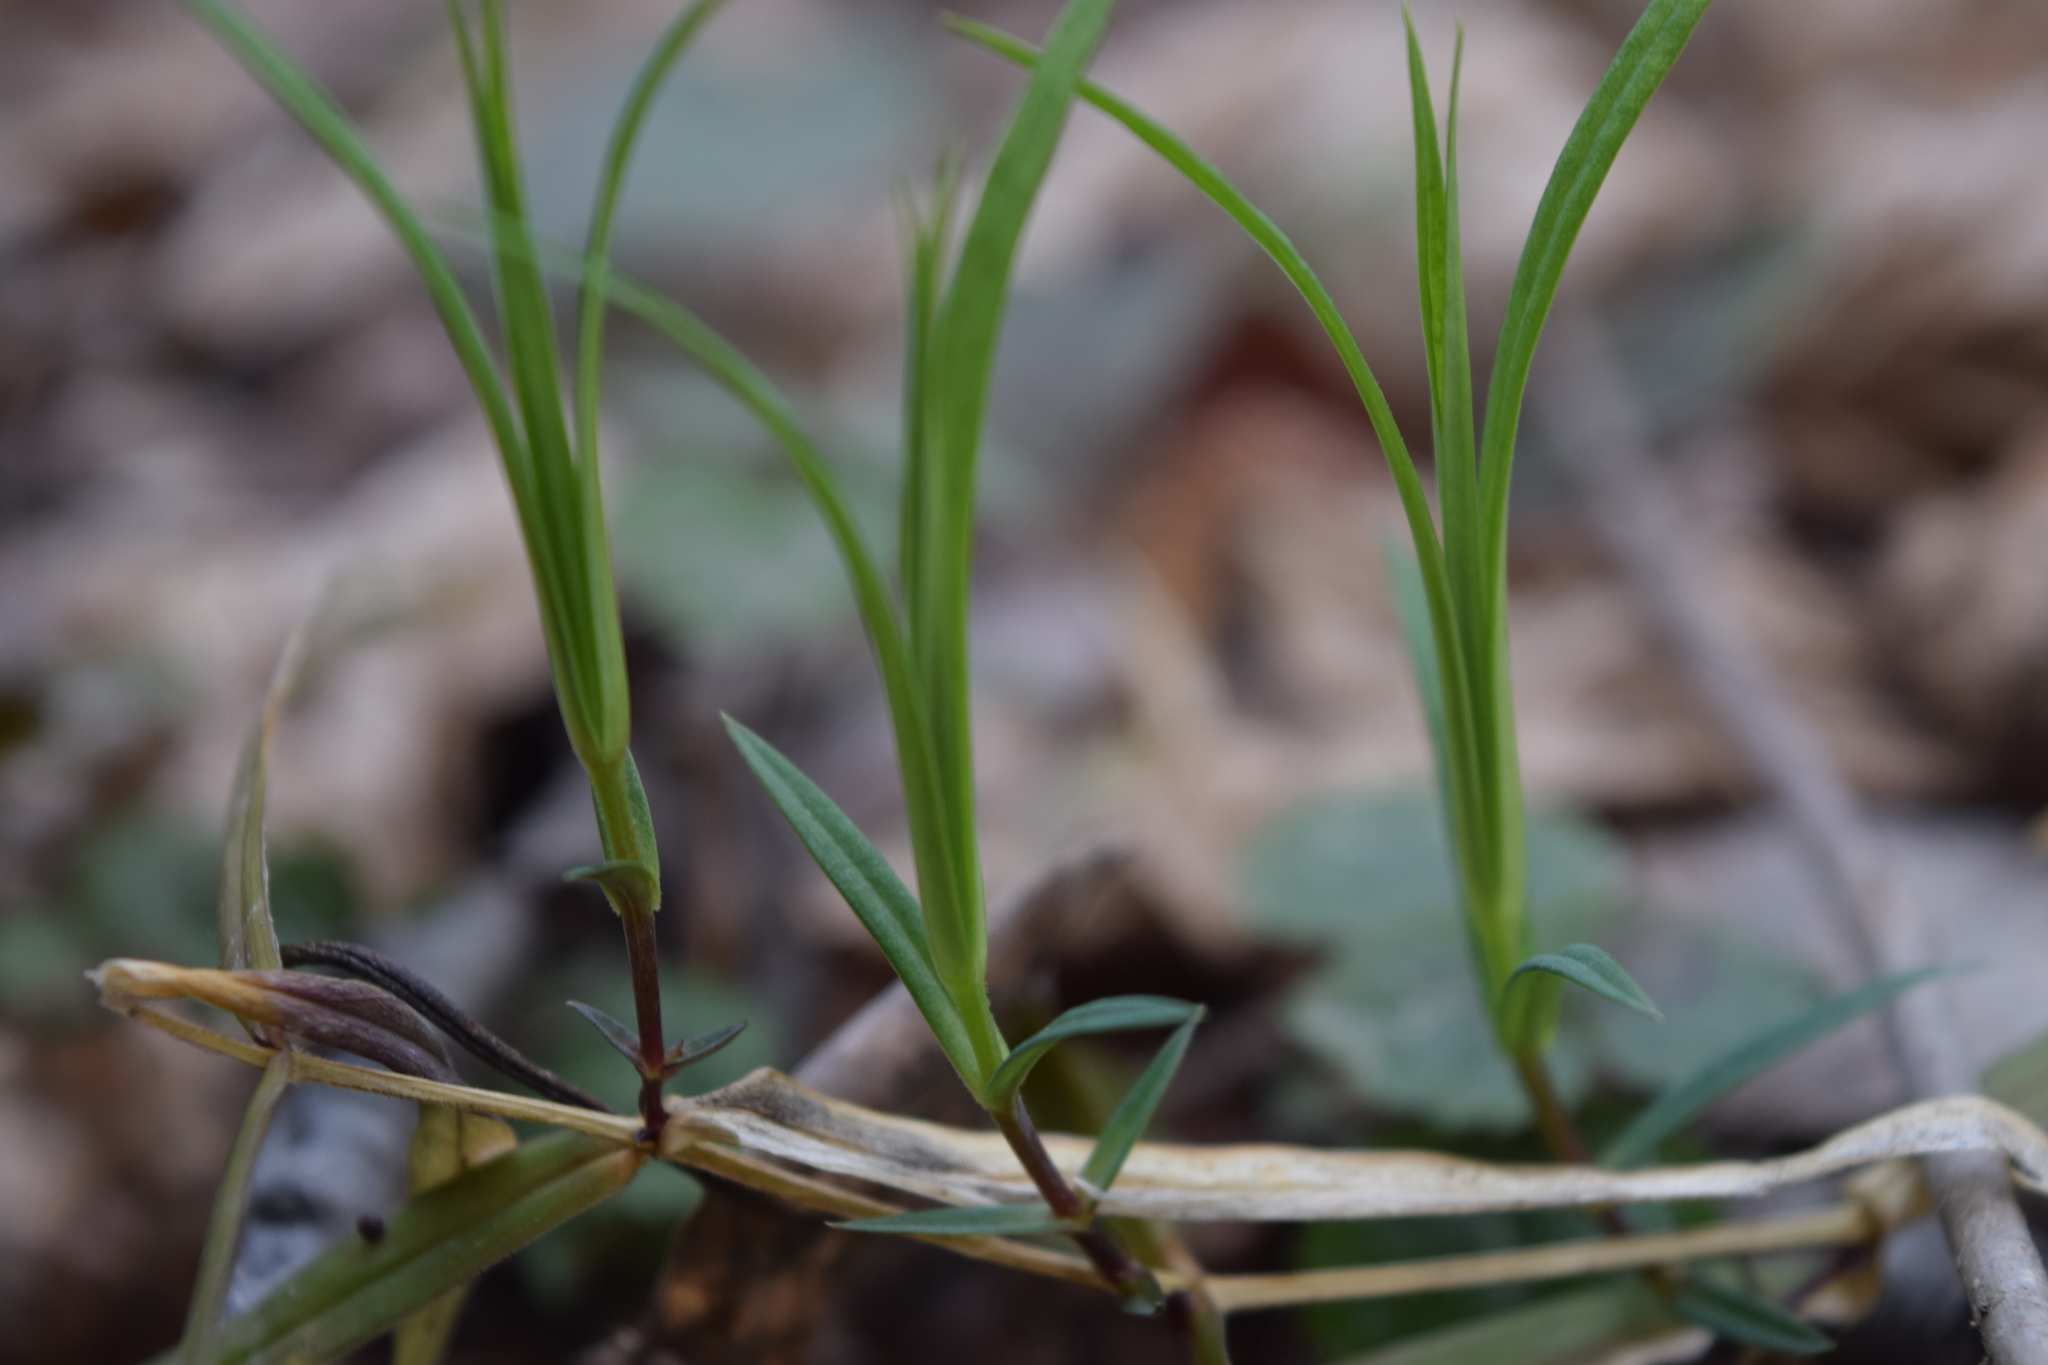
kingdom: Plantae
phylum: Tracheophyta
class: Magnoliopsida
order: Caryophyllales
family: Caryophyllaceae
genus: Rabelera
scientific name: Rabelera holostea
